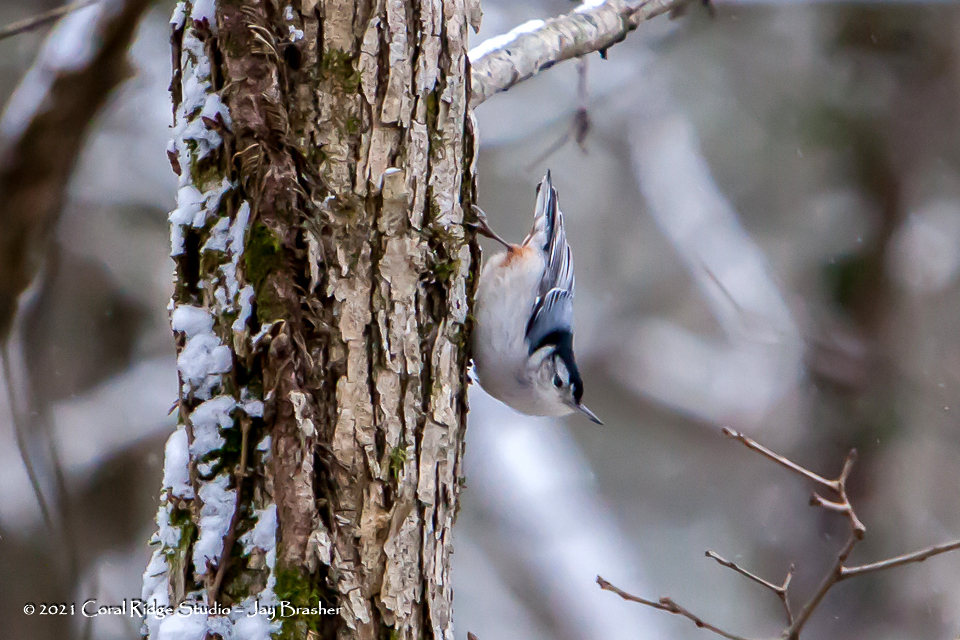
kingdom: Animalia
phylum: Chordata
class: Aves
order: Passeriformes
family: Sittidae
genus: Sitta
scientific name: Sitta carolinensis
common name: White-breasted nuthatch
